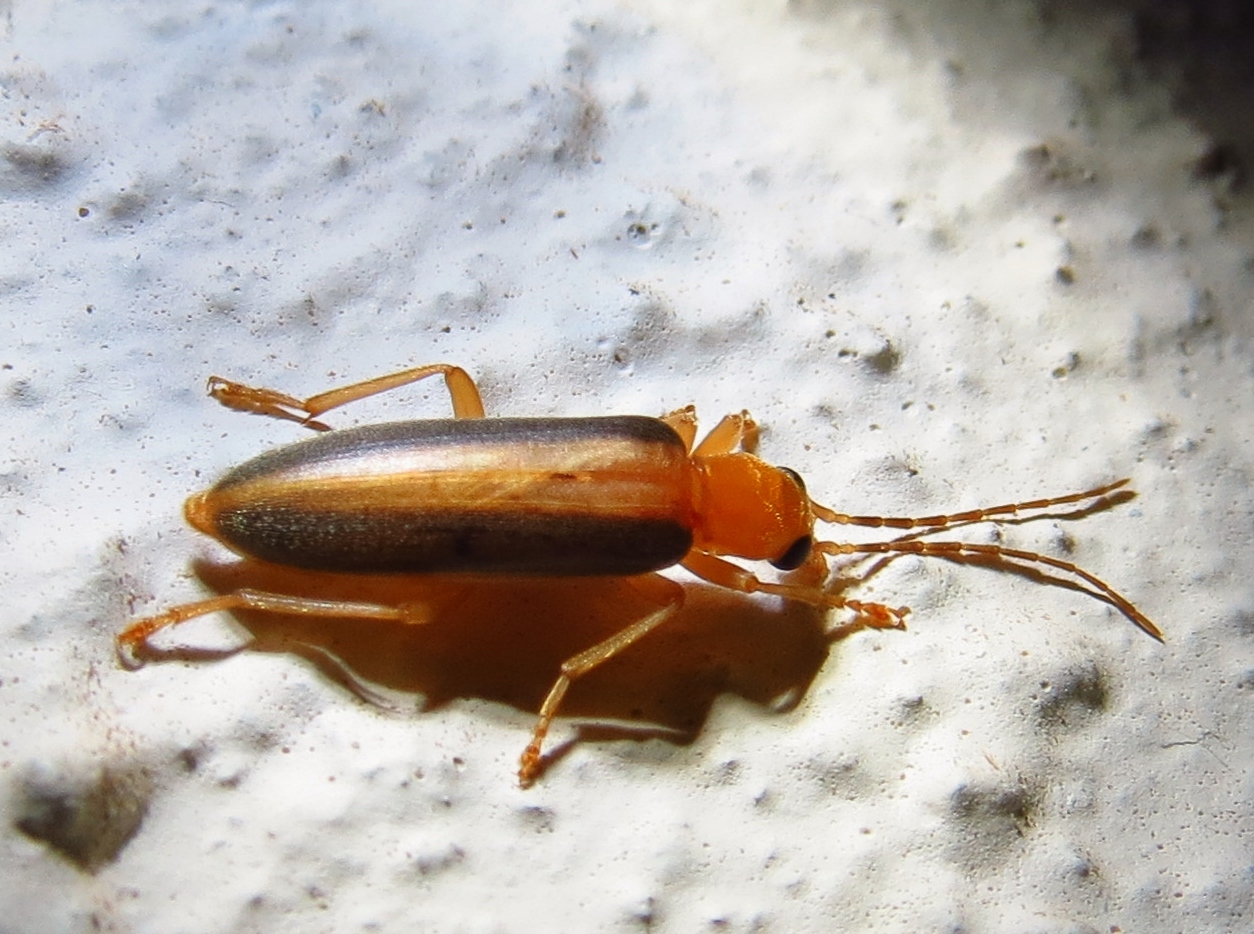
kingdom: Animalia
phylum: Arthropoda
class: Insecta
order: Coleoptera
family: Oedemeridae
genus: Oxycopis
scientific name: Oxycopis vittata
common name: False blister beetle
